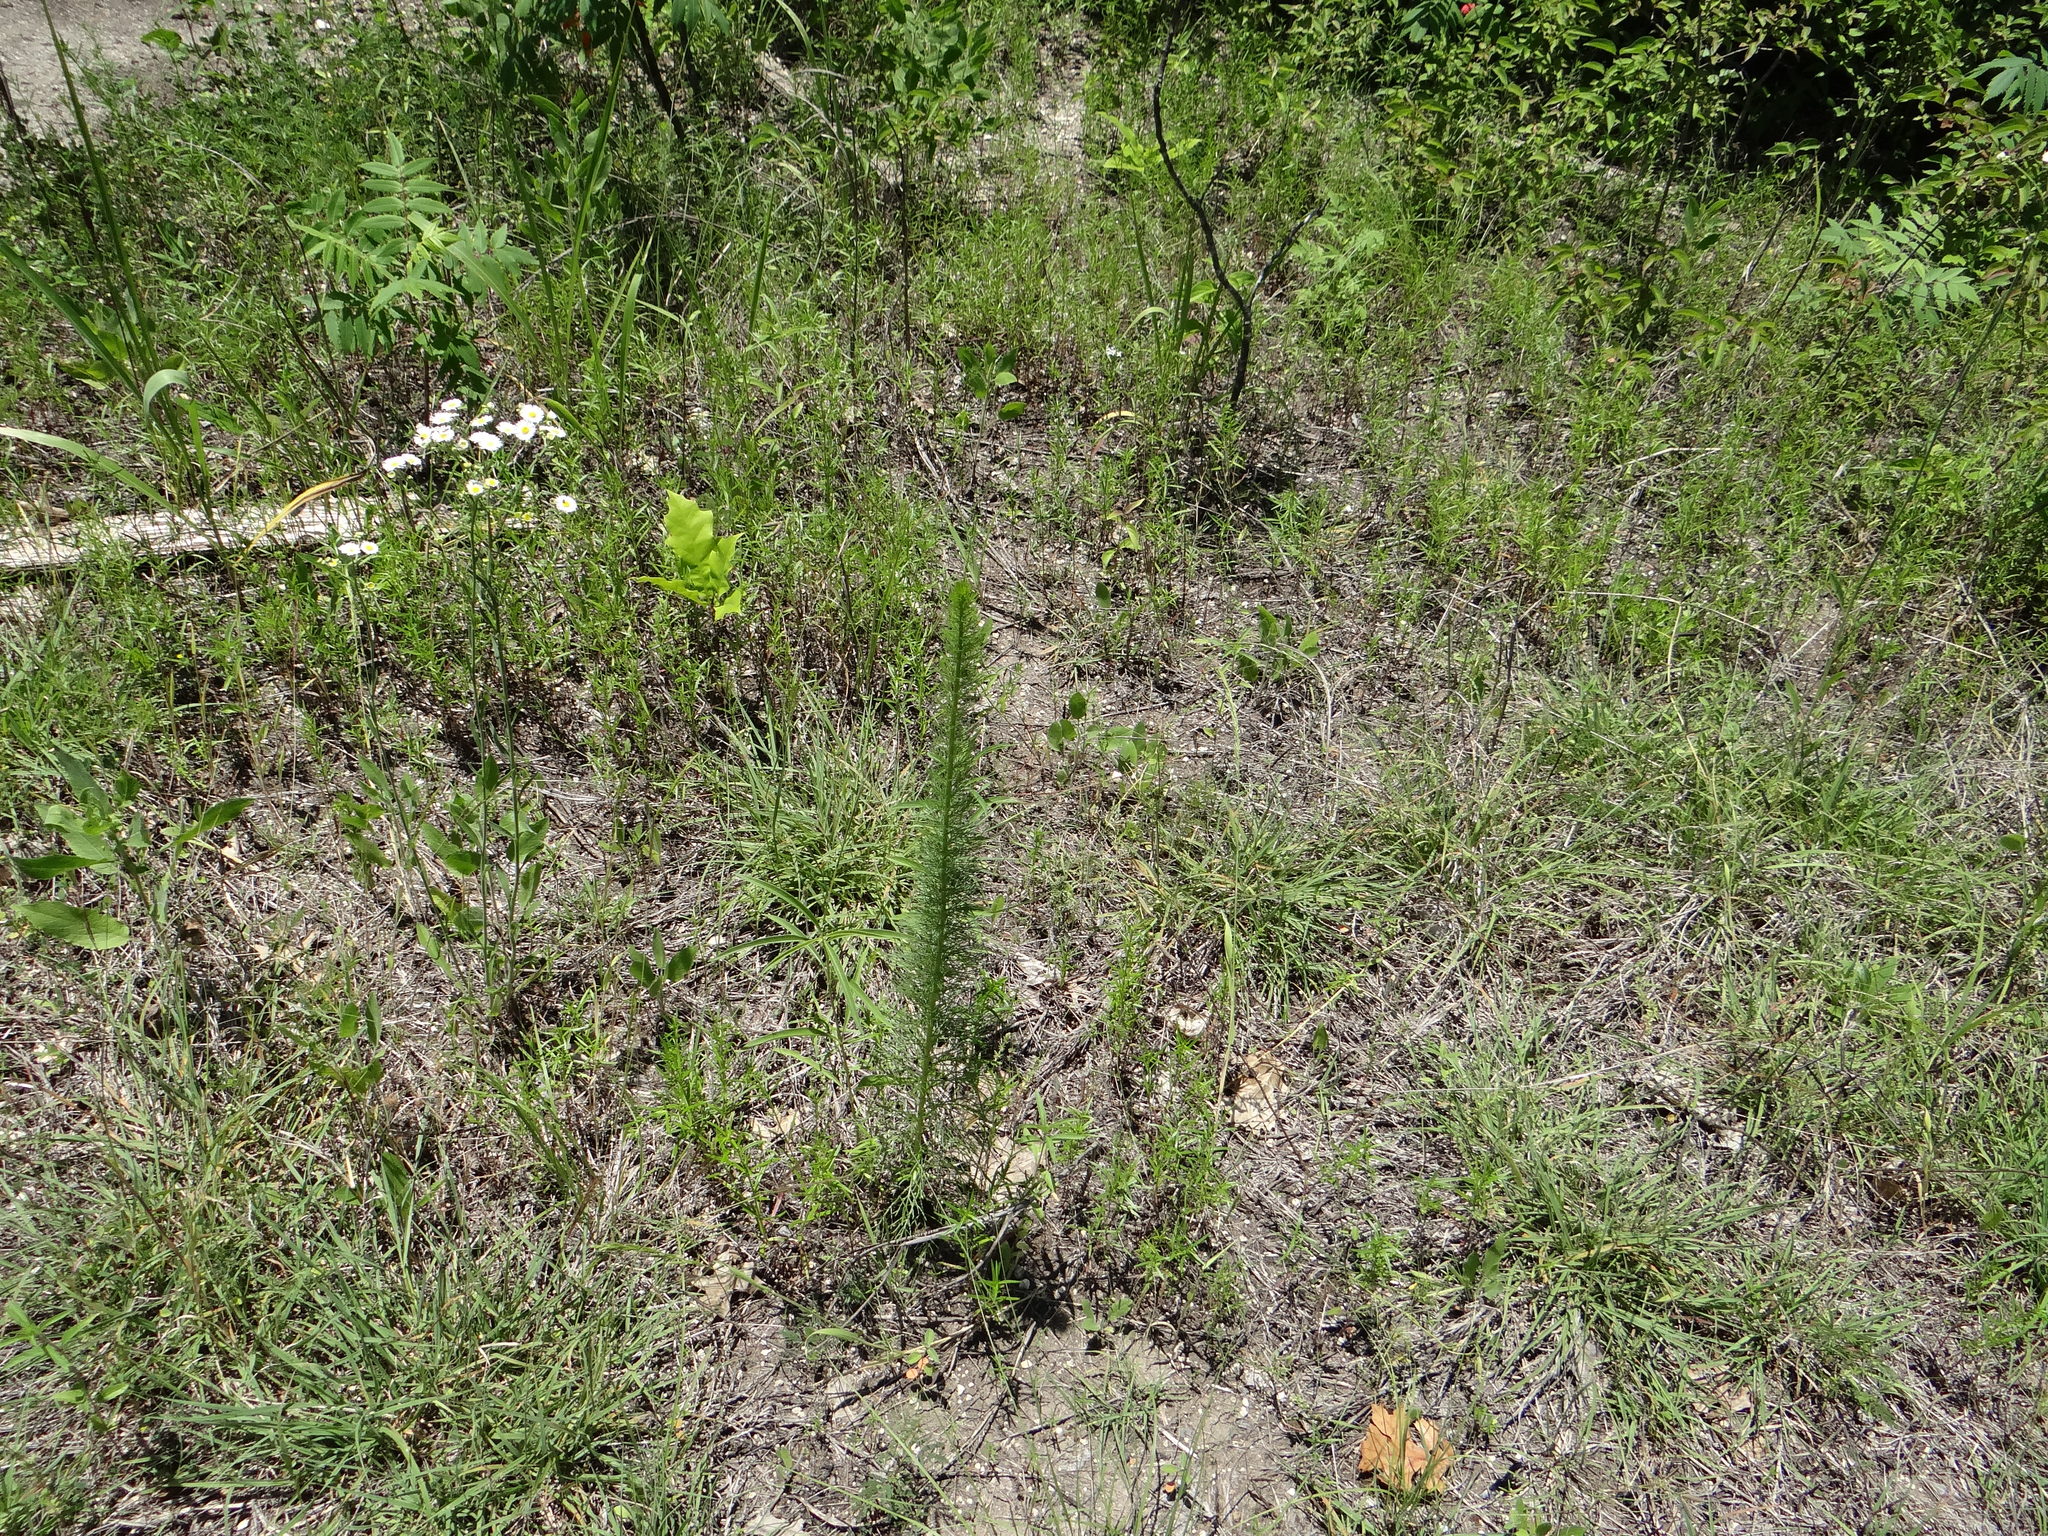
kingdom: Plantae
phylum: Tracheophyta
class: Magnoliopsida
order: Ericales
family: Polemoniaceae
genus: Ipomopsis
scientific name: Ipomopsis rubra
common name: Skyrocket
